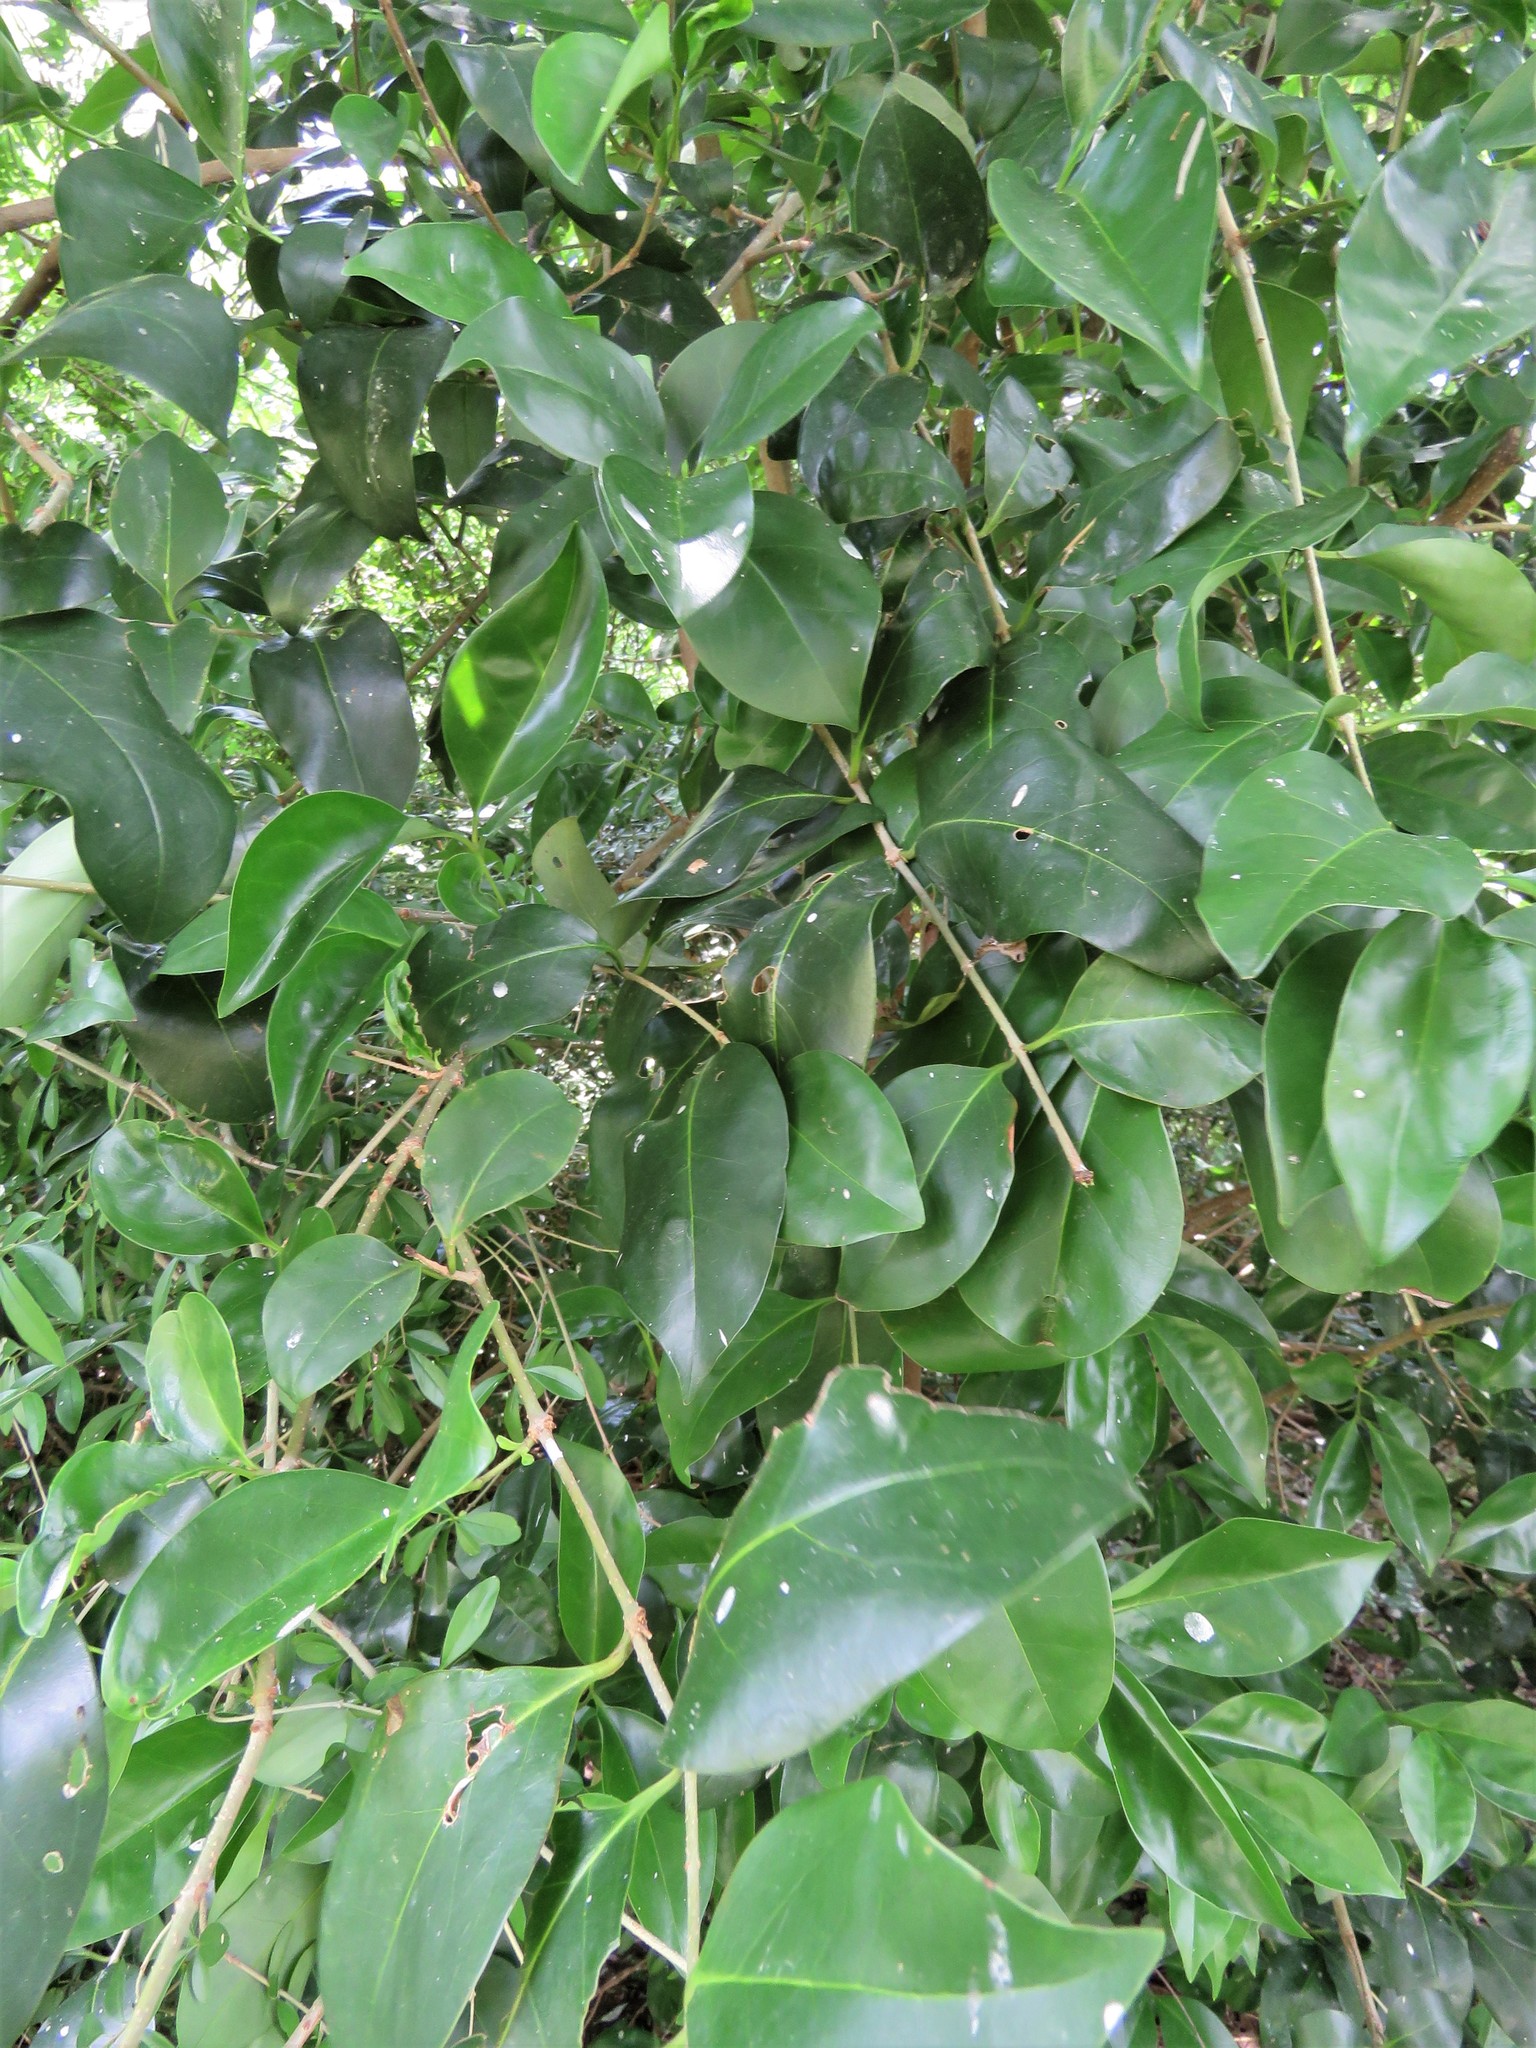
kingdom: Plantae
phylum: Tracheophyta
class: Magnoliopsida
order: Lamiales
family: Oleaceae
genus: Ligustrum
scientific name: Ligustrum lucidum
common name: Glossy privet
